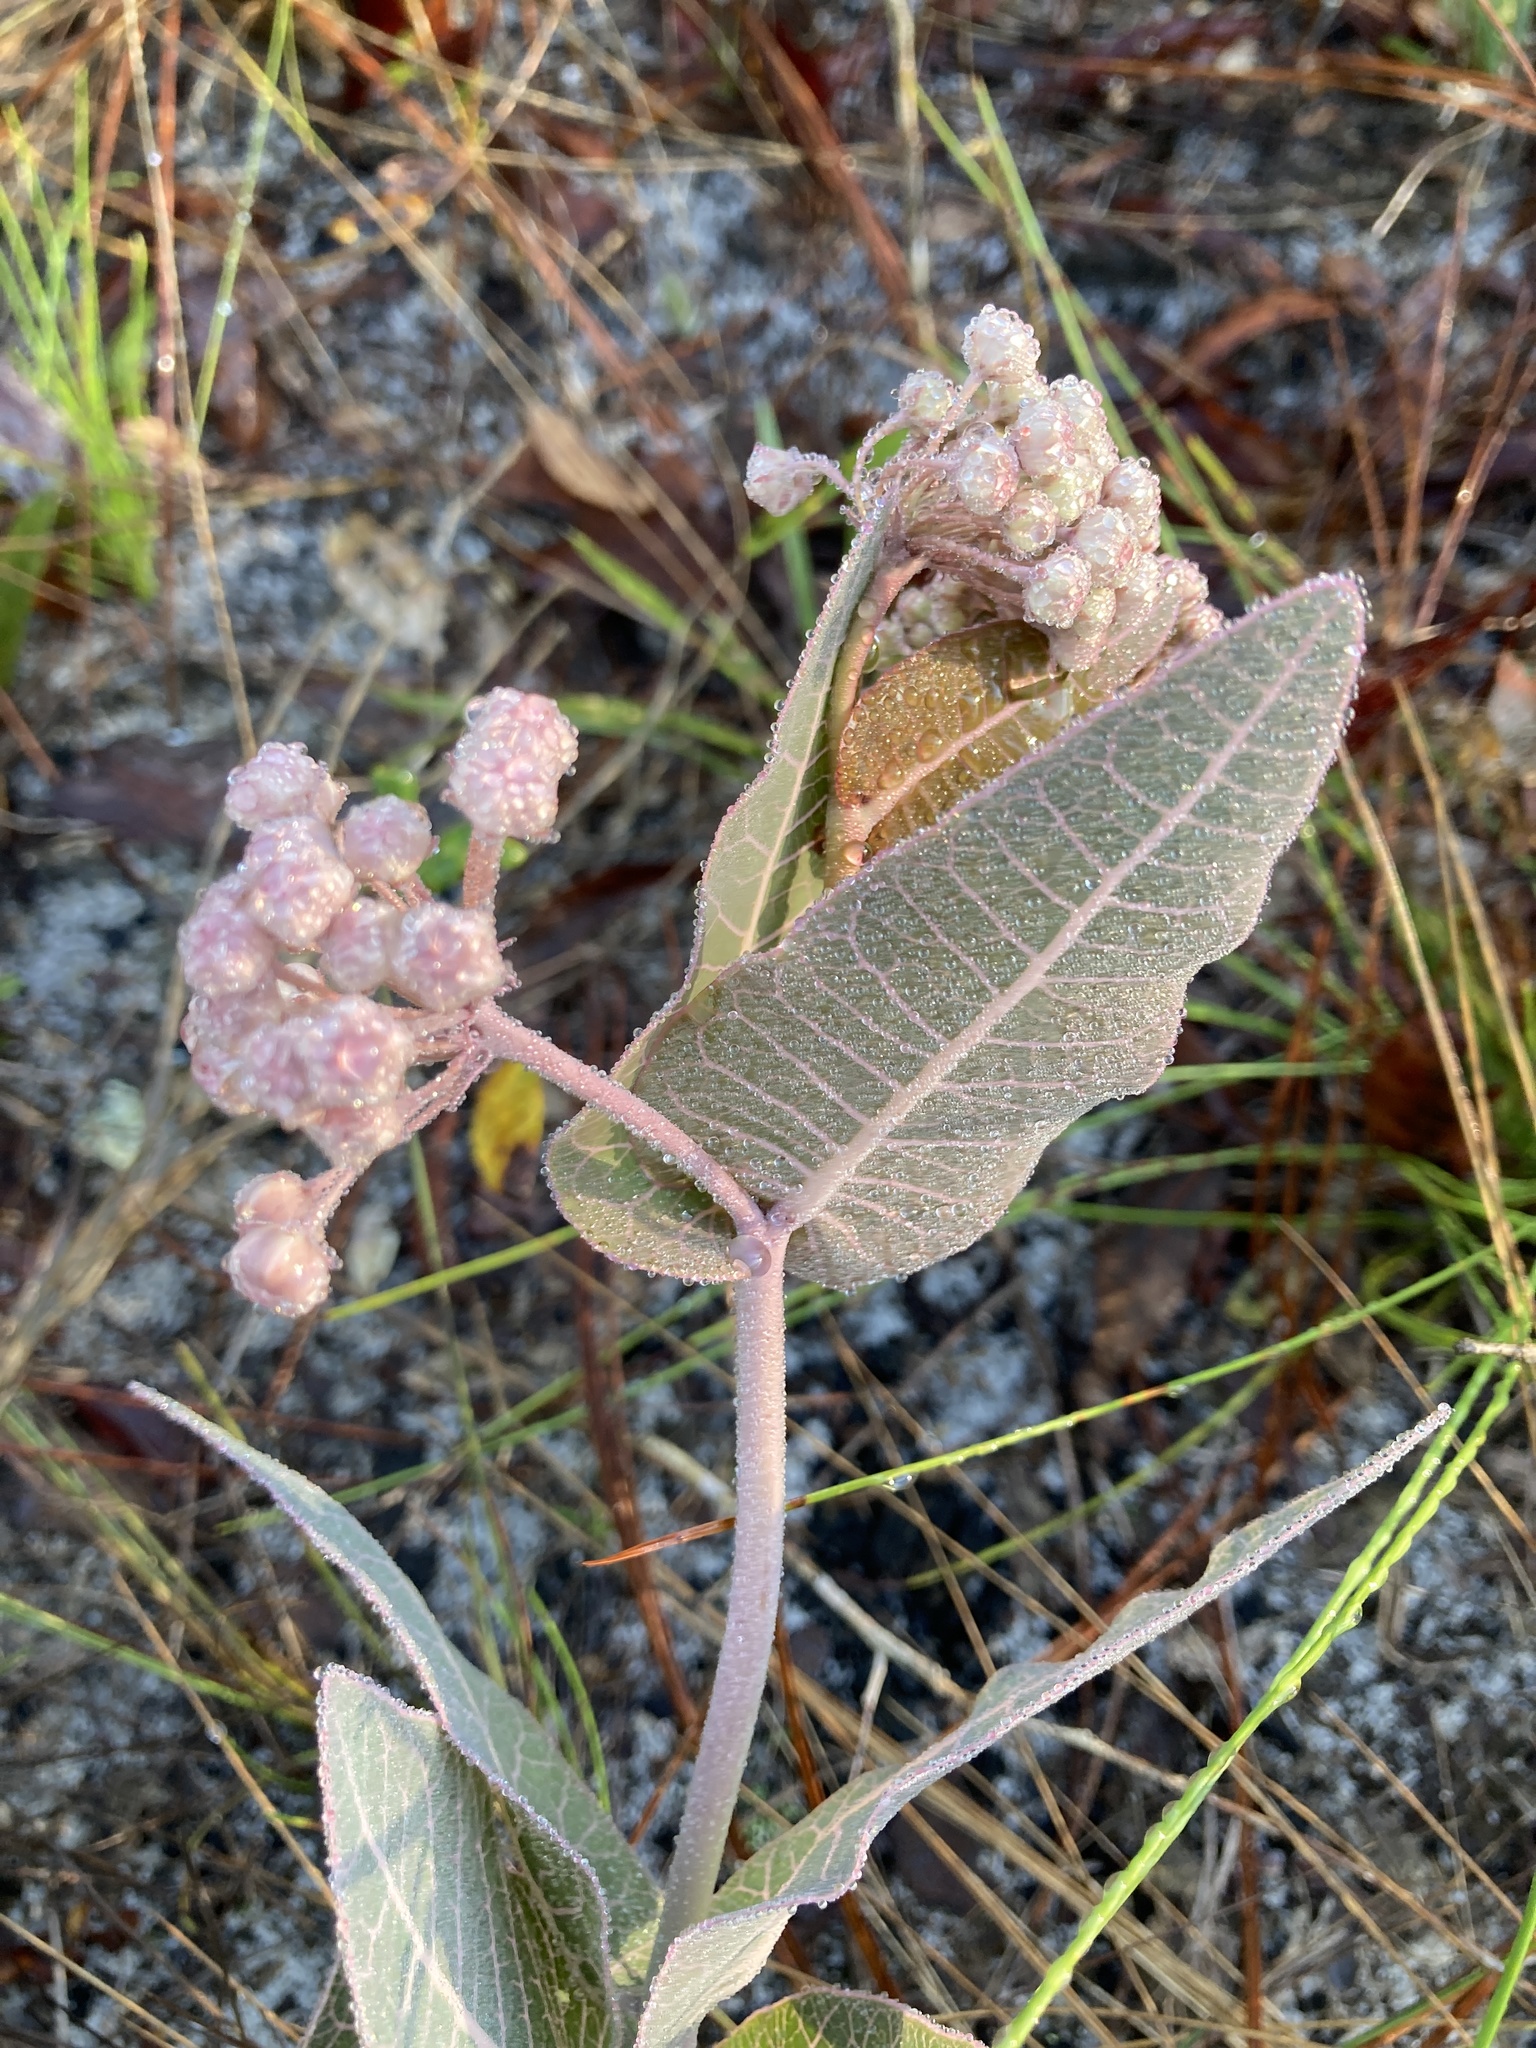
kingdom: Plantae
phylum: Tracheophyta
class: Magnoliopsida
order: Gentianales
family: Apocynaceae
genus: Asclepias
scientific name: Asclepias humistrata
